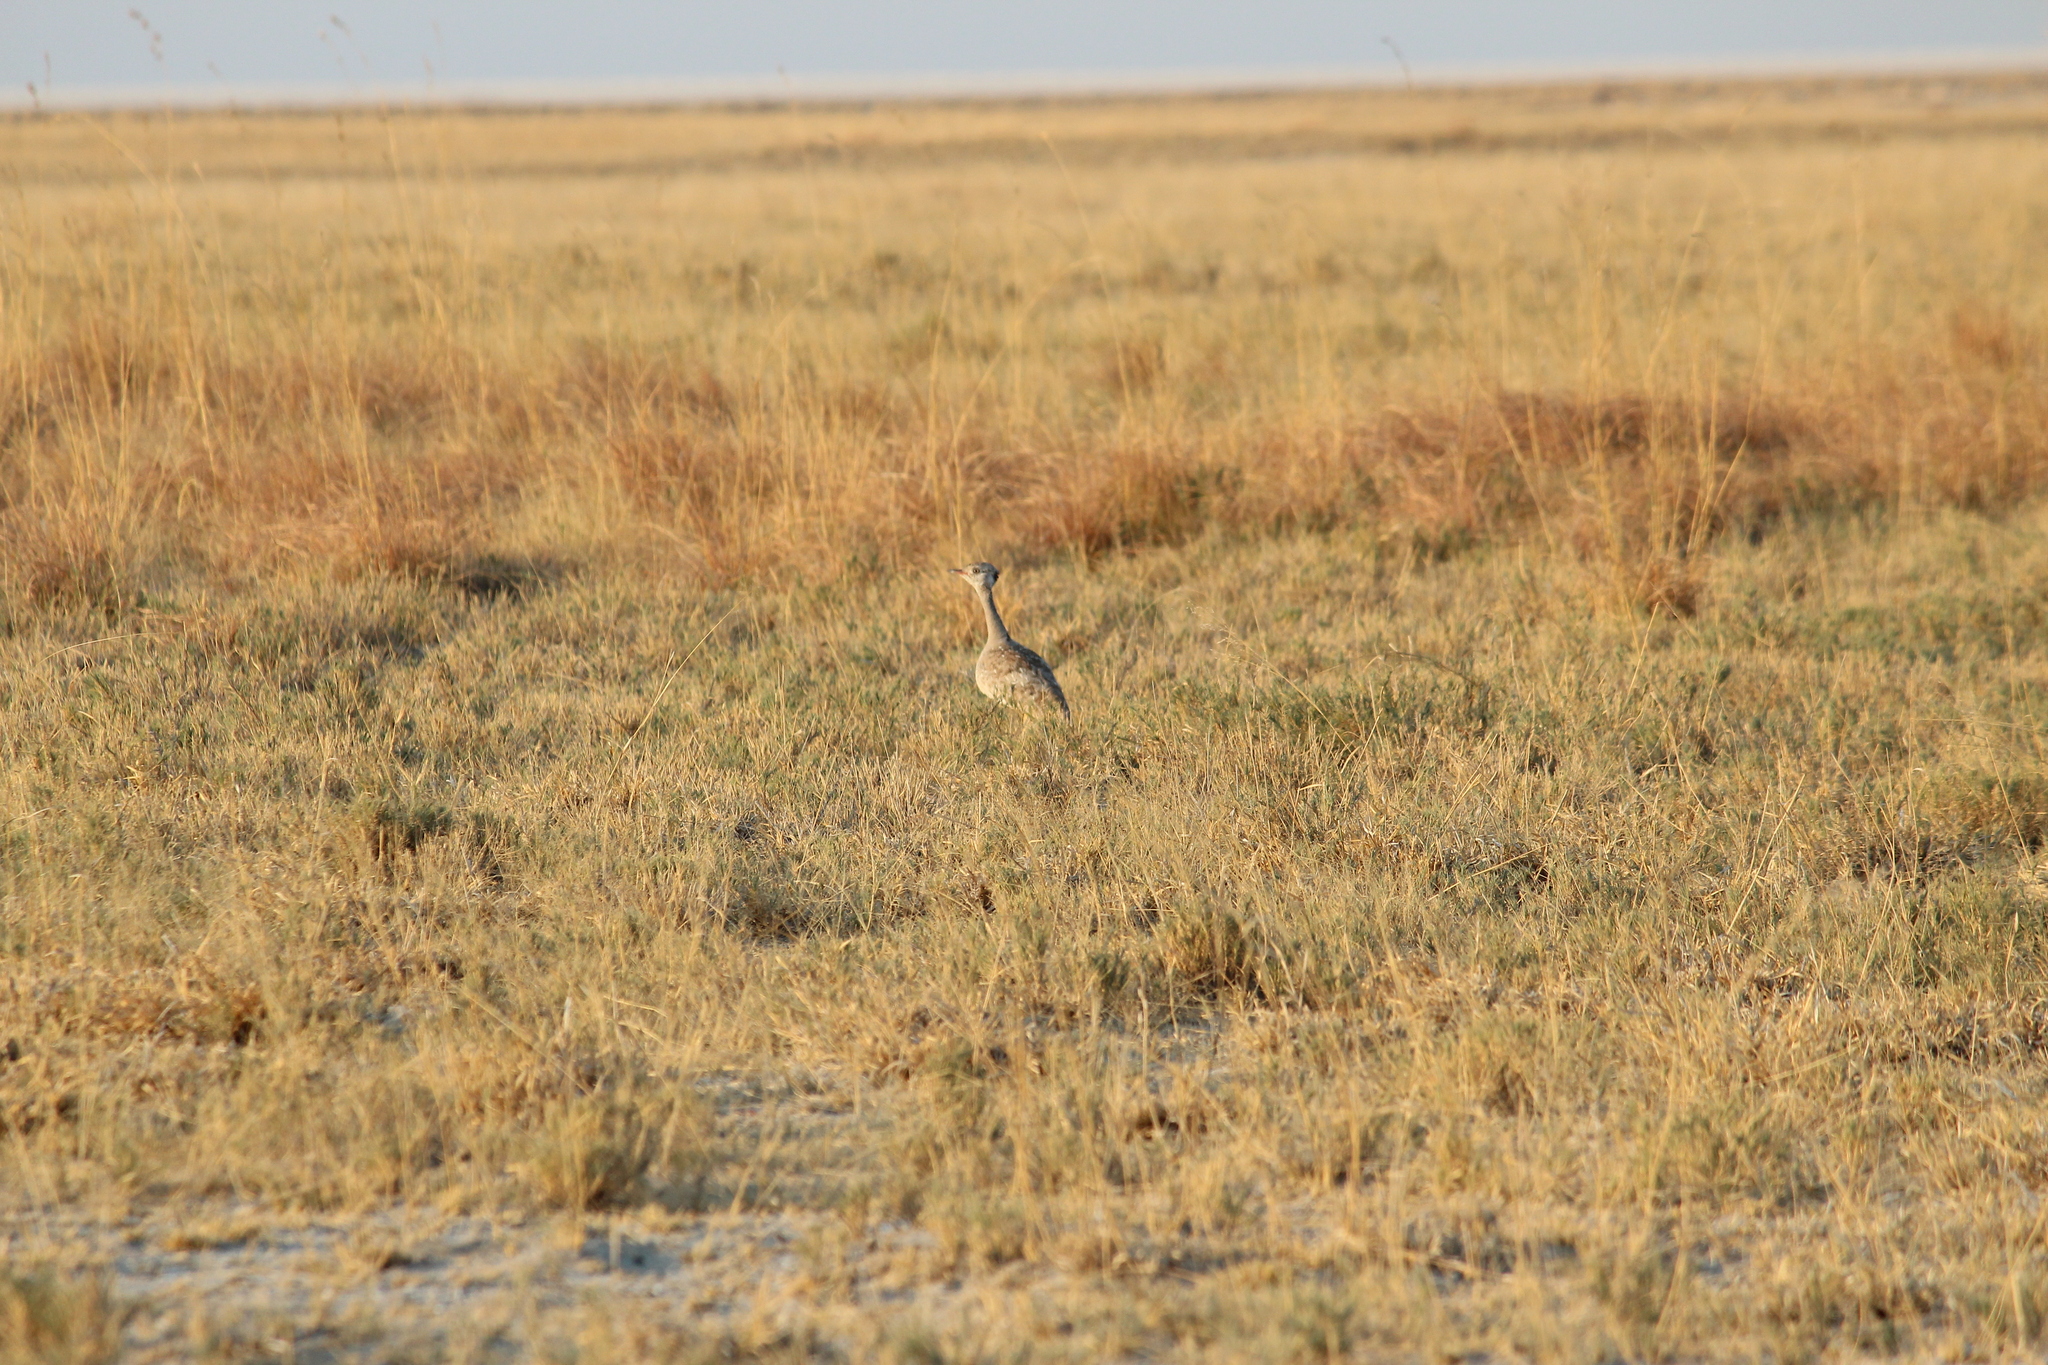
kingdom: Animalia
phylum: Chordata
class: Aves
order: Otidiformes
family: Otididae
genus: Afrotis
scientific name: Afrotis afraoides
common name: Northern black korhaan
